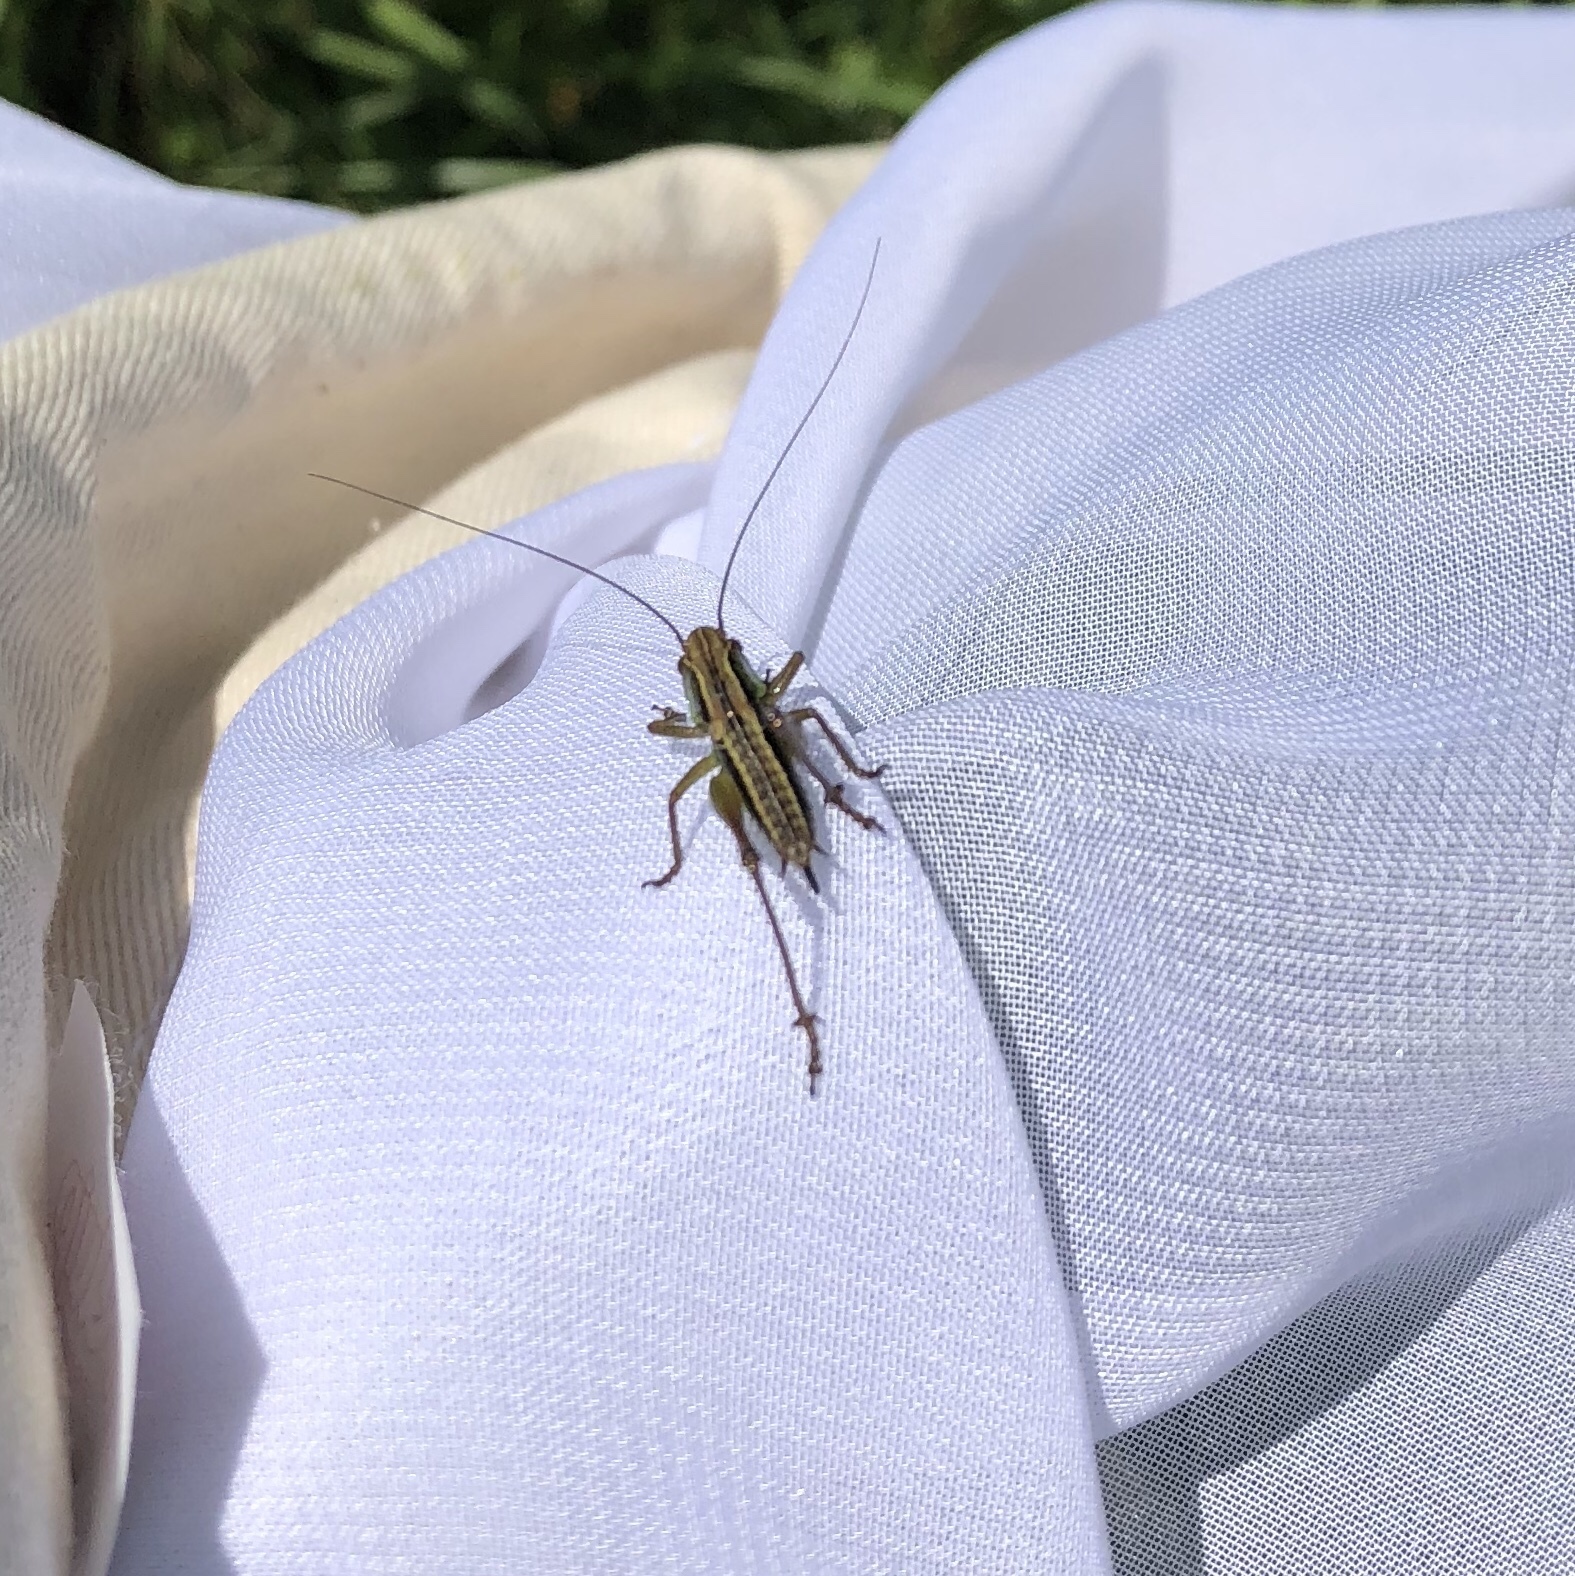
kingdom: Animalia
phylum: Arthropoda
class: Insecta
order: Orthoptera
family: Tettigoniidae
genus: Roeseliana
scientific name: Roeseliana roeselii
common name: Roesel's bush cricket
